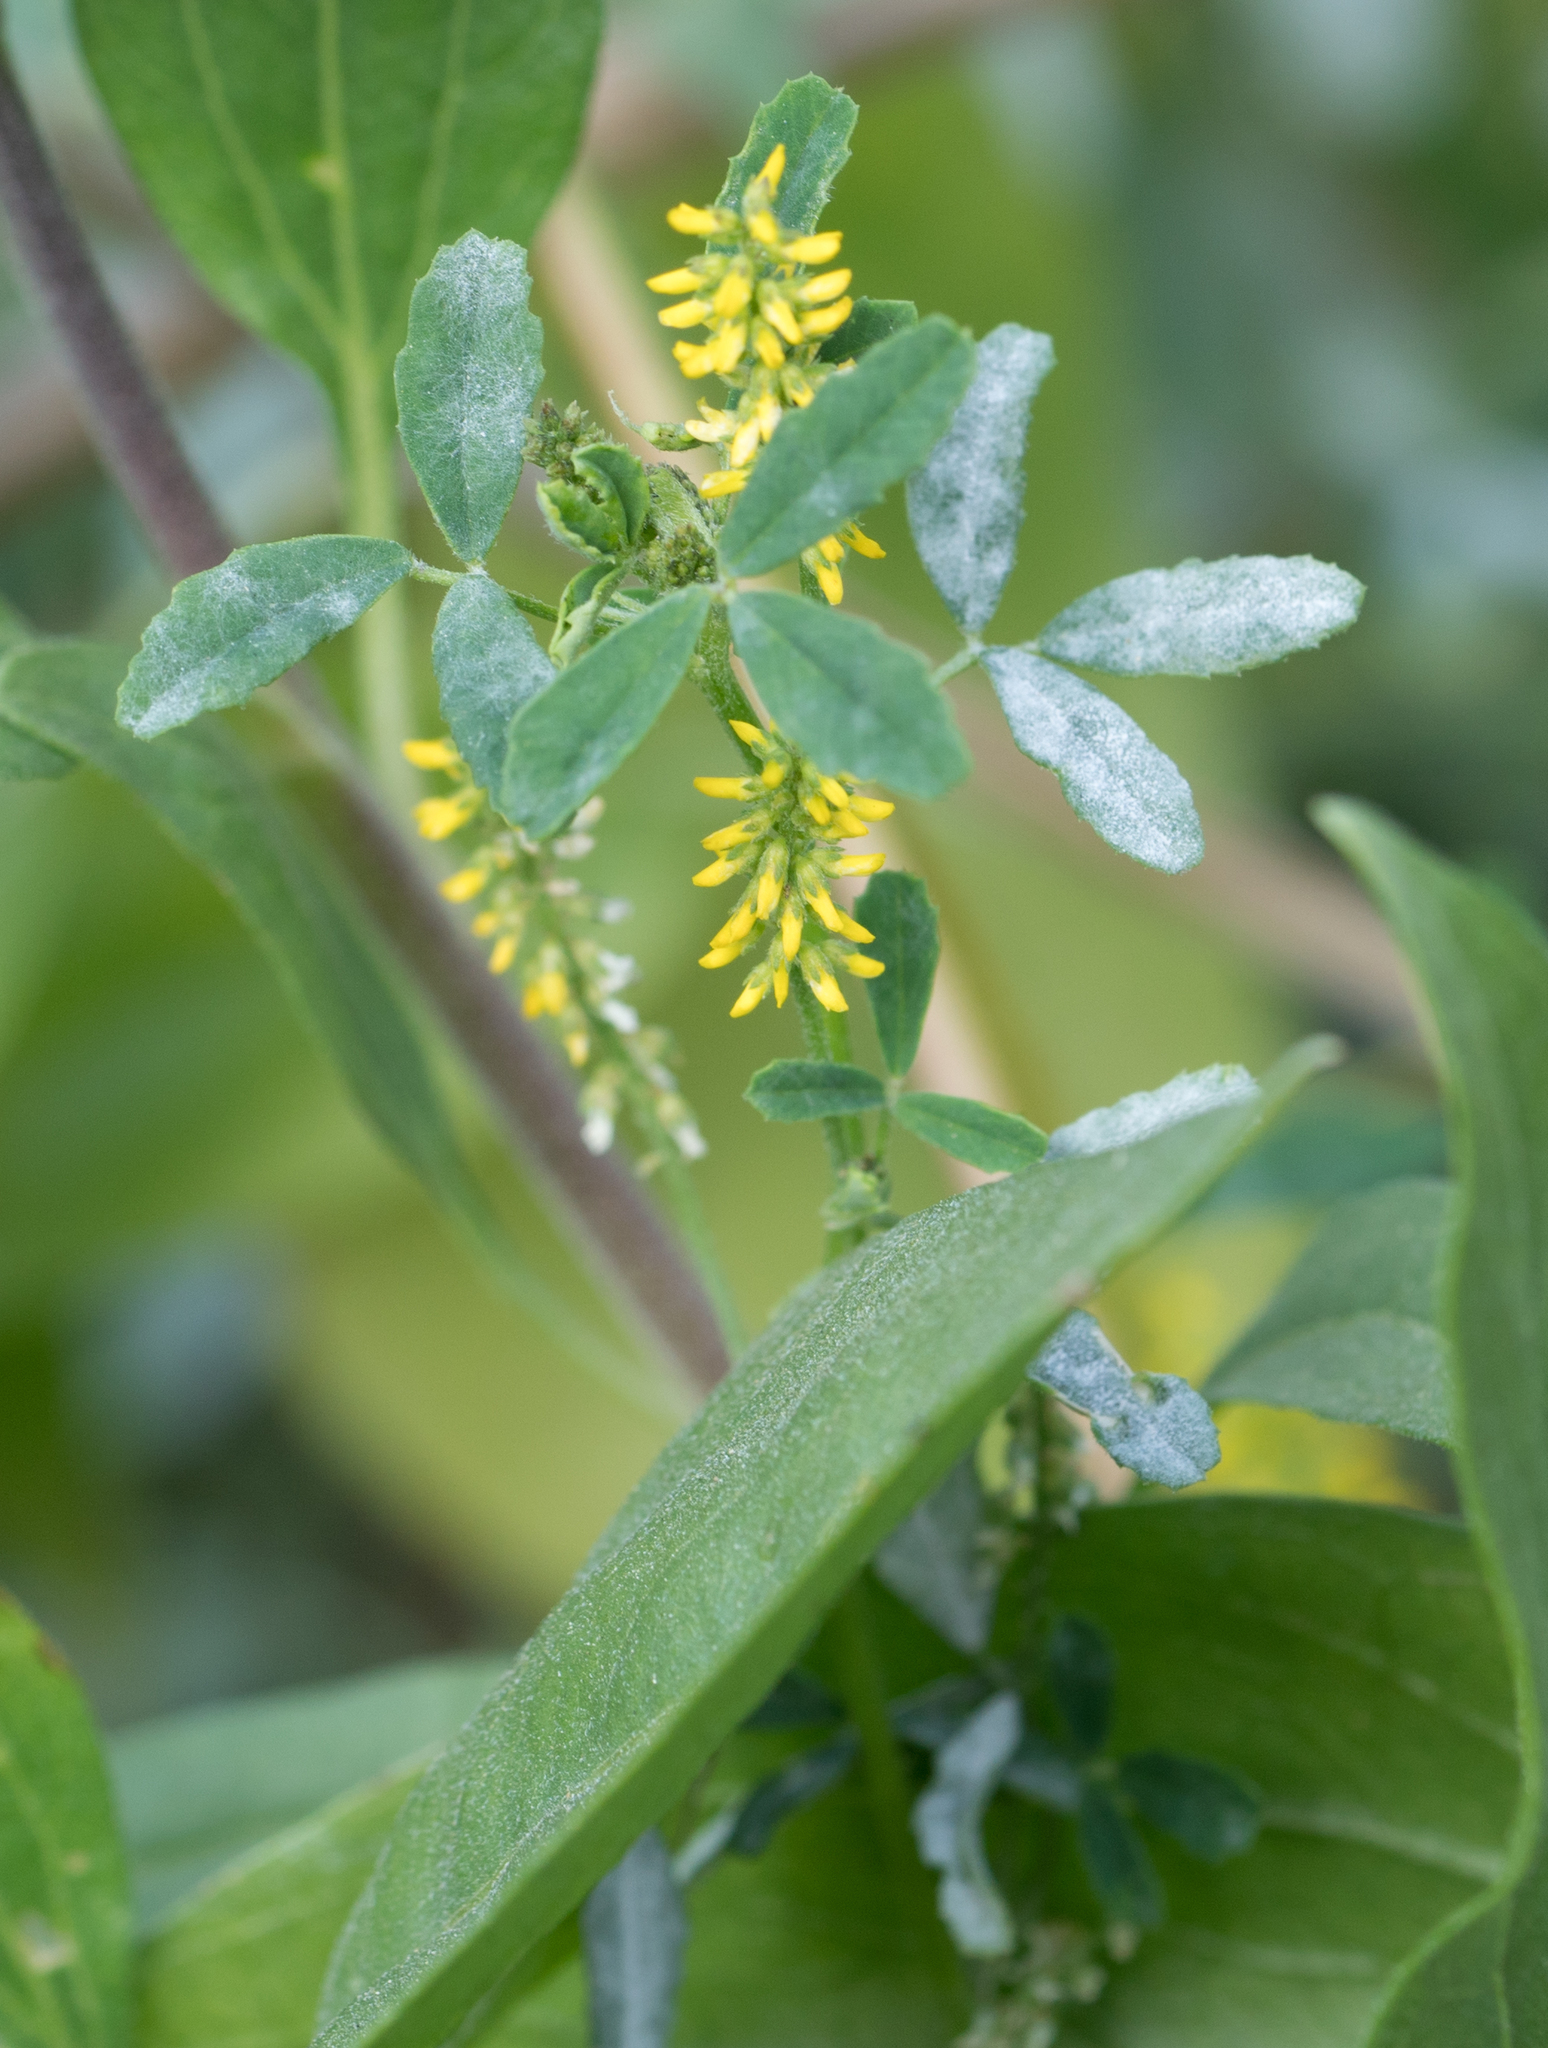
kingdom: Plantae
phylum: Tracheophyta
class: Magnoliopsida
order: Fabales
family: Fabaceae
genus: Melilotus
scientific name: Melilotus indicus
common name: Small melilot
